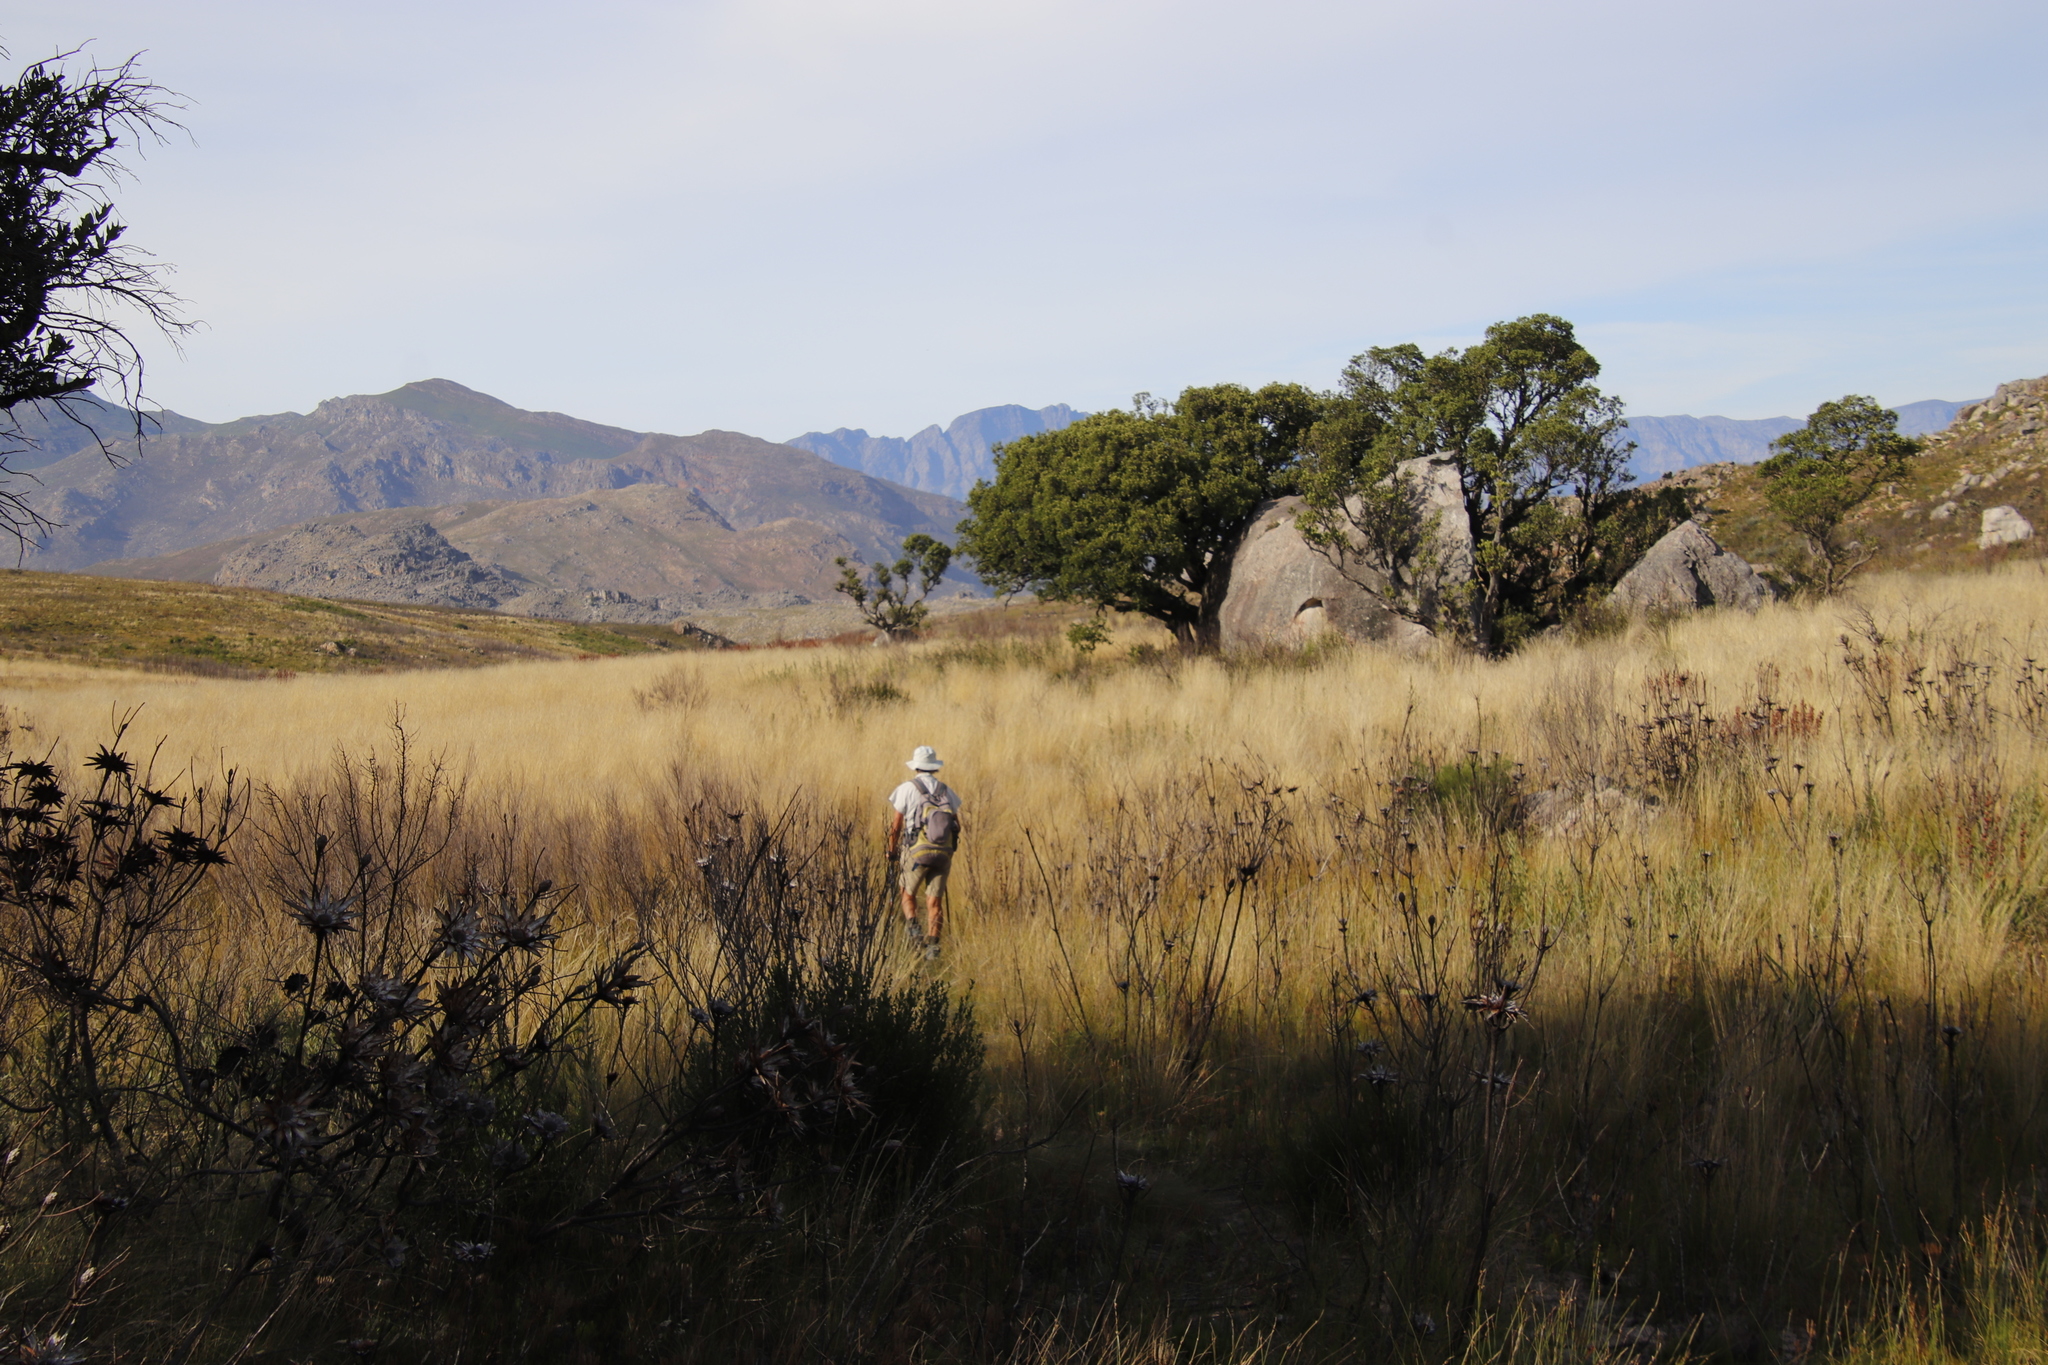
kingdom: Plantae
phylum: Tracheophyta
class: Magnoliopsida
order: Celastrales
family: Celastraceae
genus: Gymnosporia
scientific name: Gymnosporia laurina
